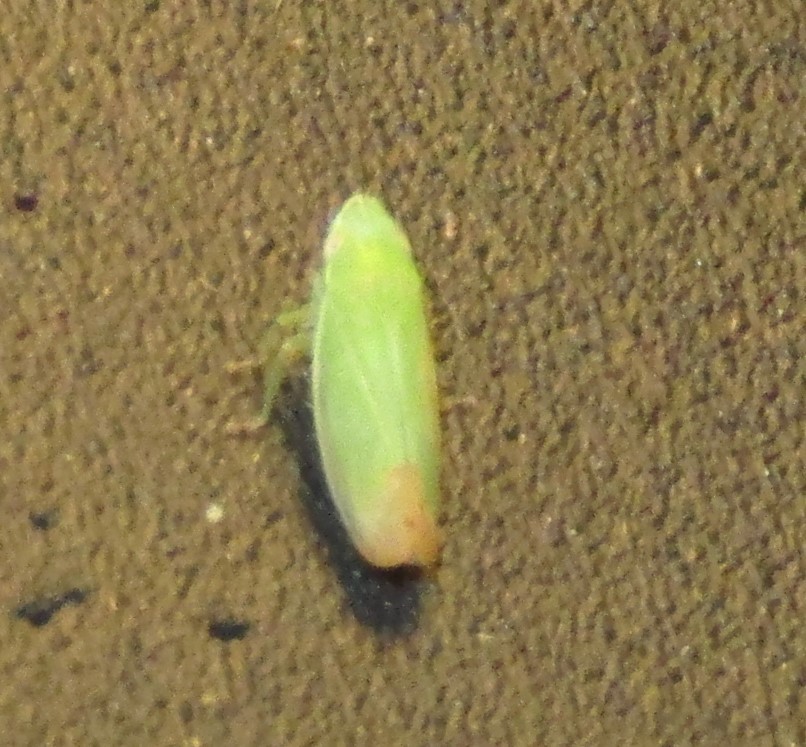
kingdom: Animalia
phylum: Arthropoda
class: Insecta
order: Hemiptera
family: Cicadellidae
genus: Memnonia
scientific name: Memnonia flavida
